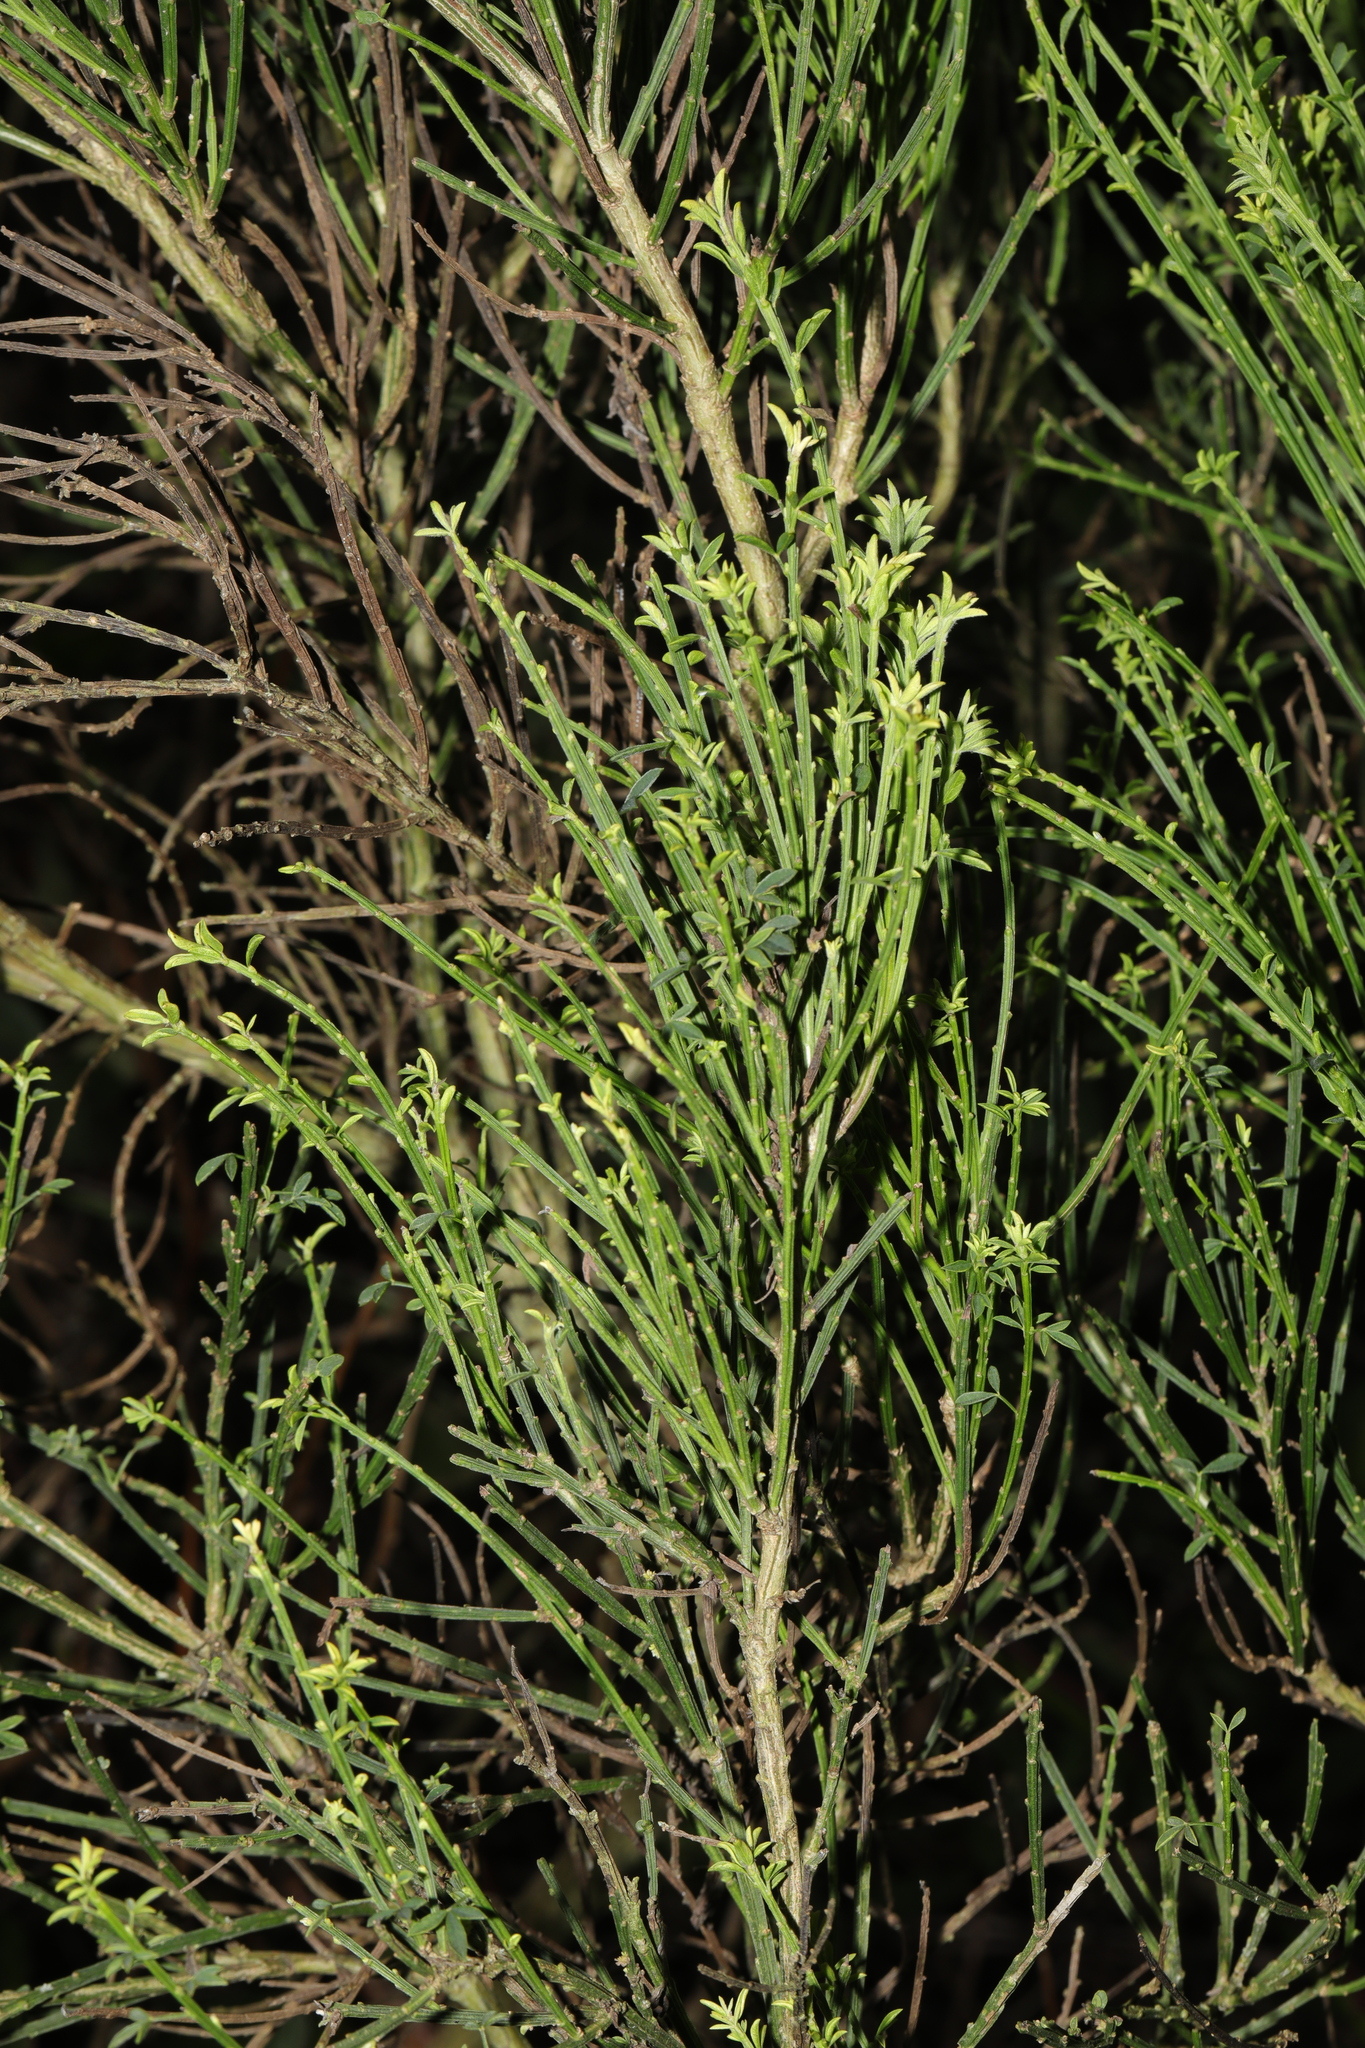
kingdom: Plantae
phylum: Tracheophyta
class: Magnoliopsida
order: Fabales
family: Fabaceae
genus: Cytisus
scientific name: Cytisus scoparius
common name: Scotch broom
